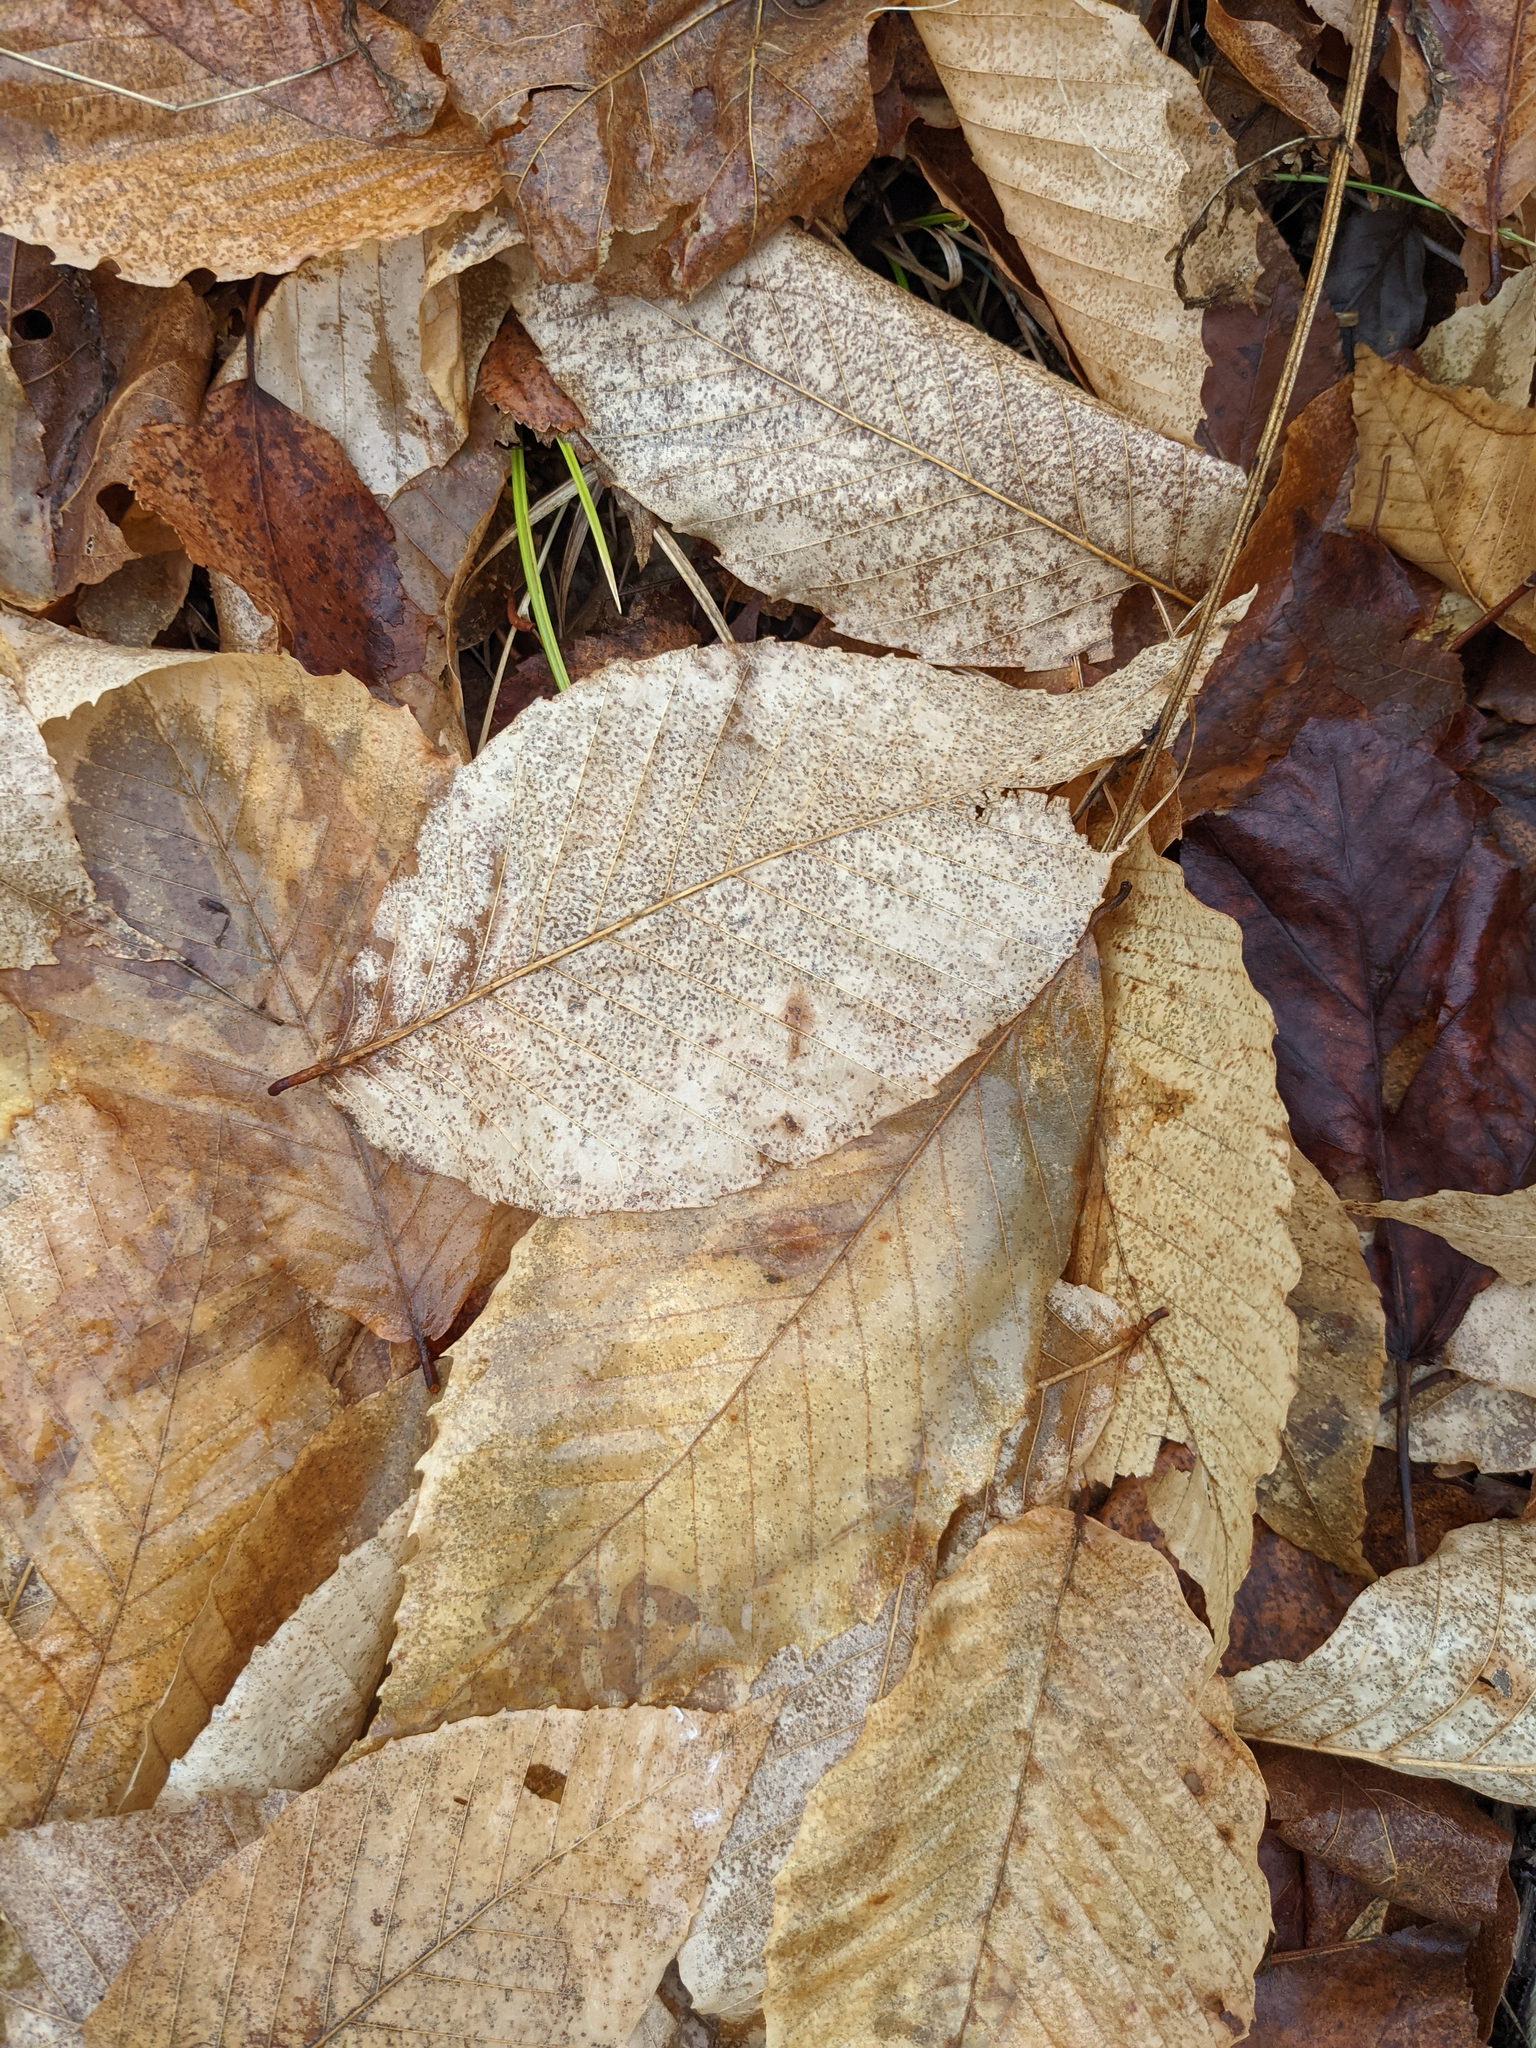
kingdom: Plantae
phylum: Tracheophyta
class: Magnoliopsida
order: Fagales
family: Fagaceae
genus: Fagus
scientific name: Fagus grandifolia
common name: American beech
